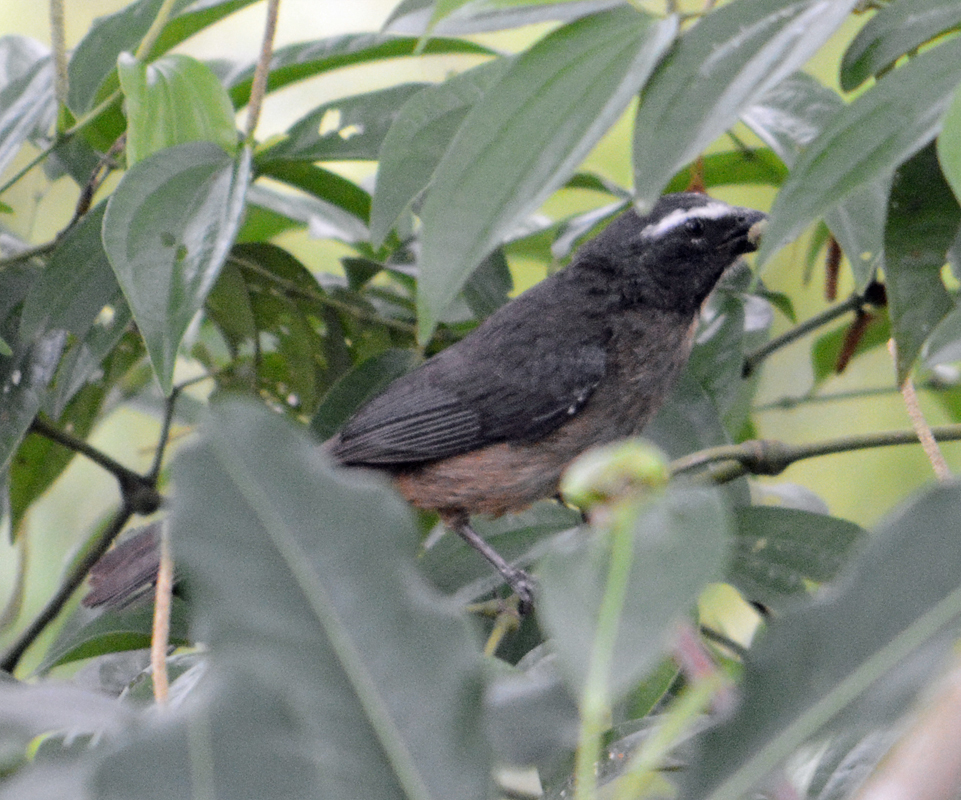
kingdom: Animalia
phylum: Chordata
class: Aves
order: Passeriformes
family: Thraupidae
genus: Saltator
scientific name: Saltator grandis
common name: Cinnamon-bellied saltator
